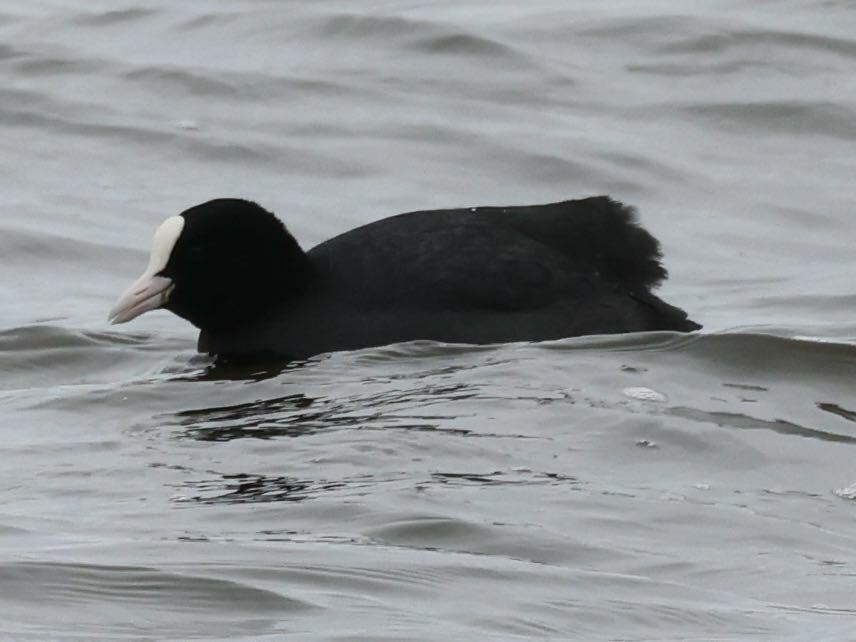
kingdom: Animalia
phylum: Chordata
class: Aves
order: Gruiformes
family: Rallidae
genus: Fulica
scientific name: Fulica atra
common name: Eurasian coot
